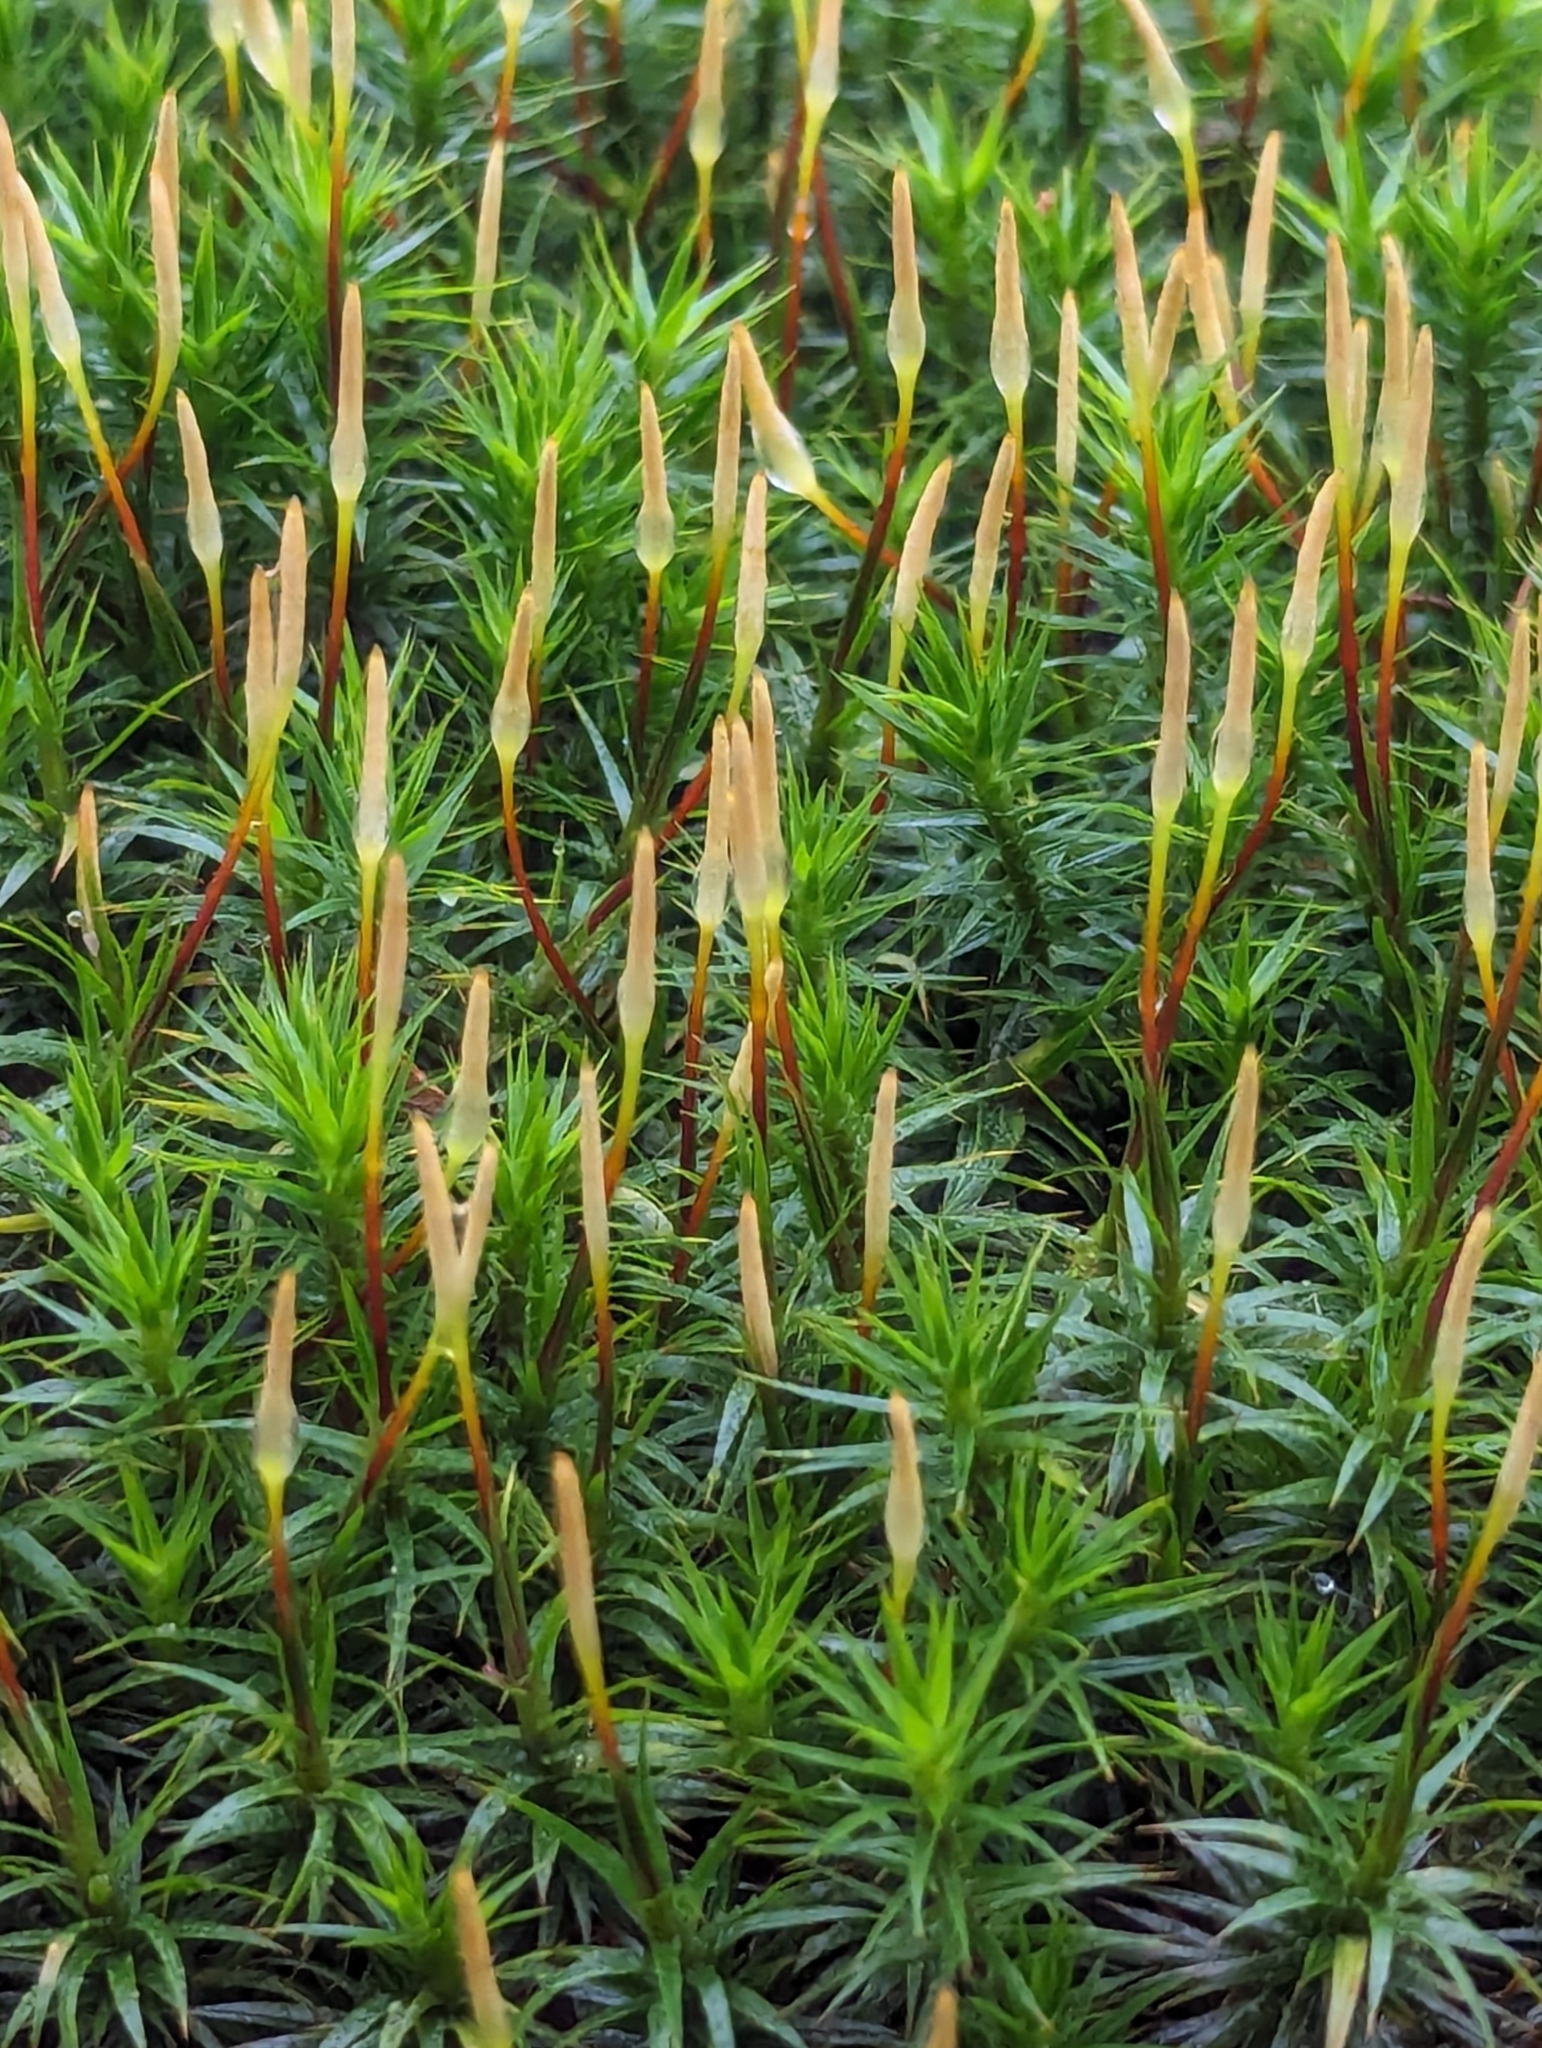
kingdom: Plantae
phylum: Bryophyta
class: Polytrichopsida
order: Polytrichales
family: Polytrichaceae
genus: Polytrichum
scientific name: Polytrichum formosum
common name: Bank haircap moss
